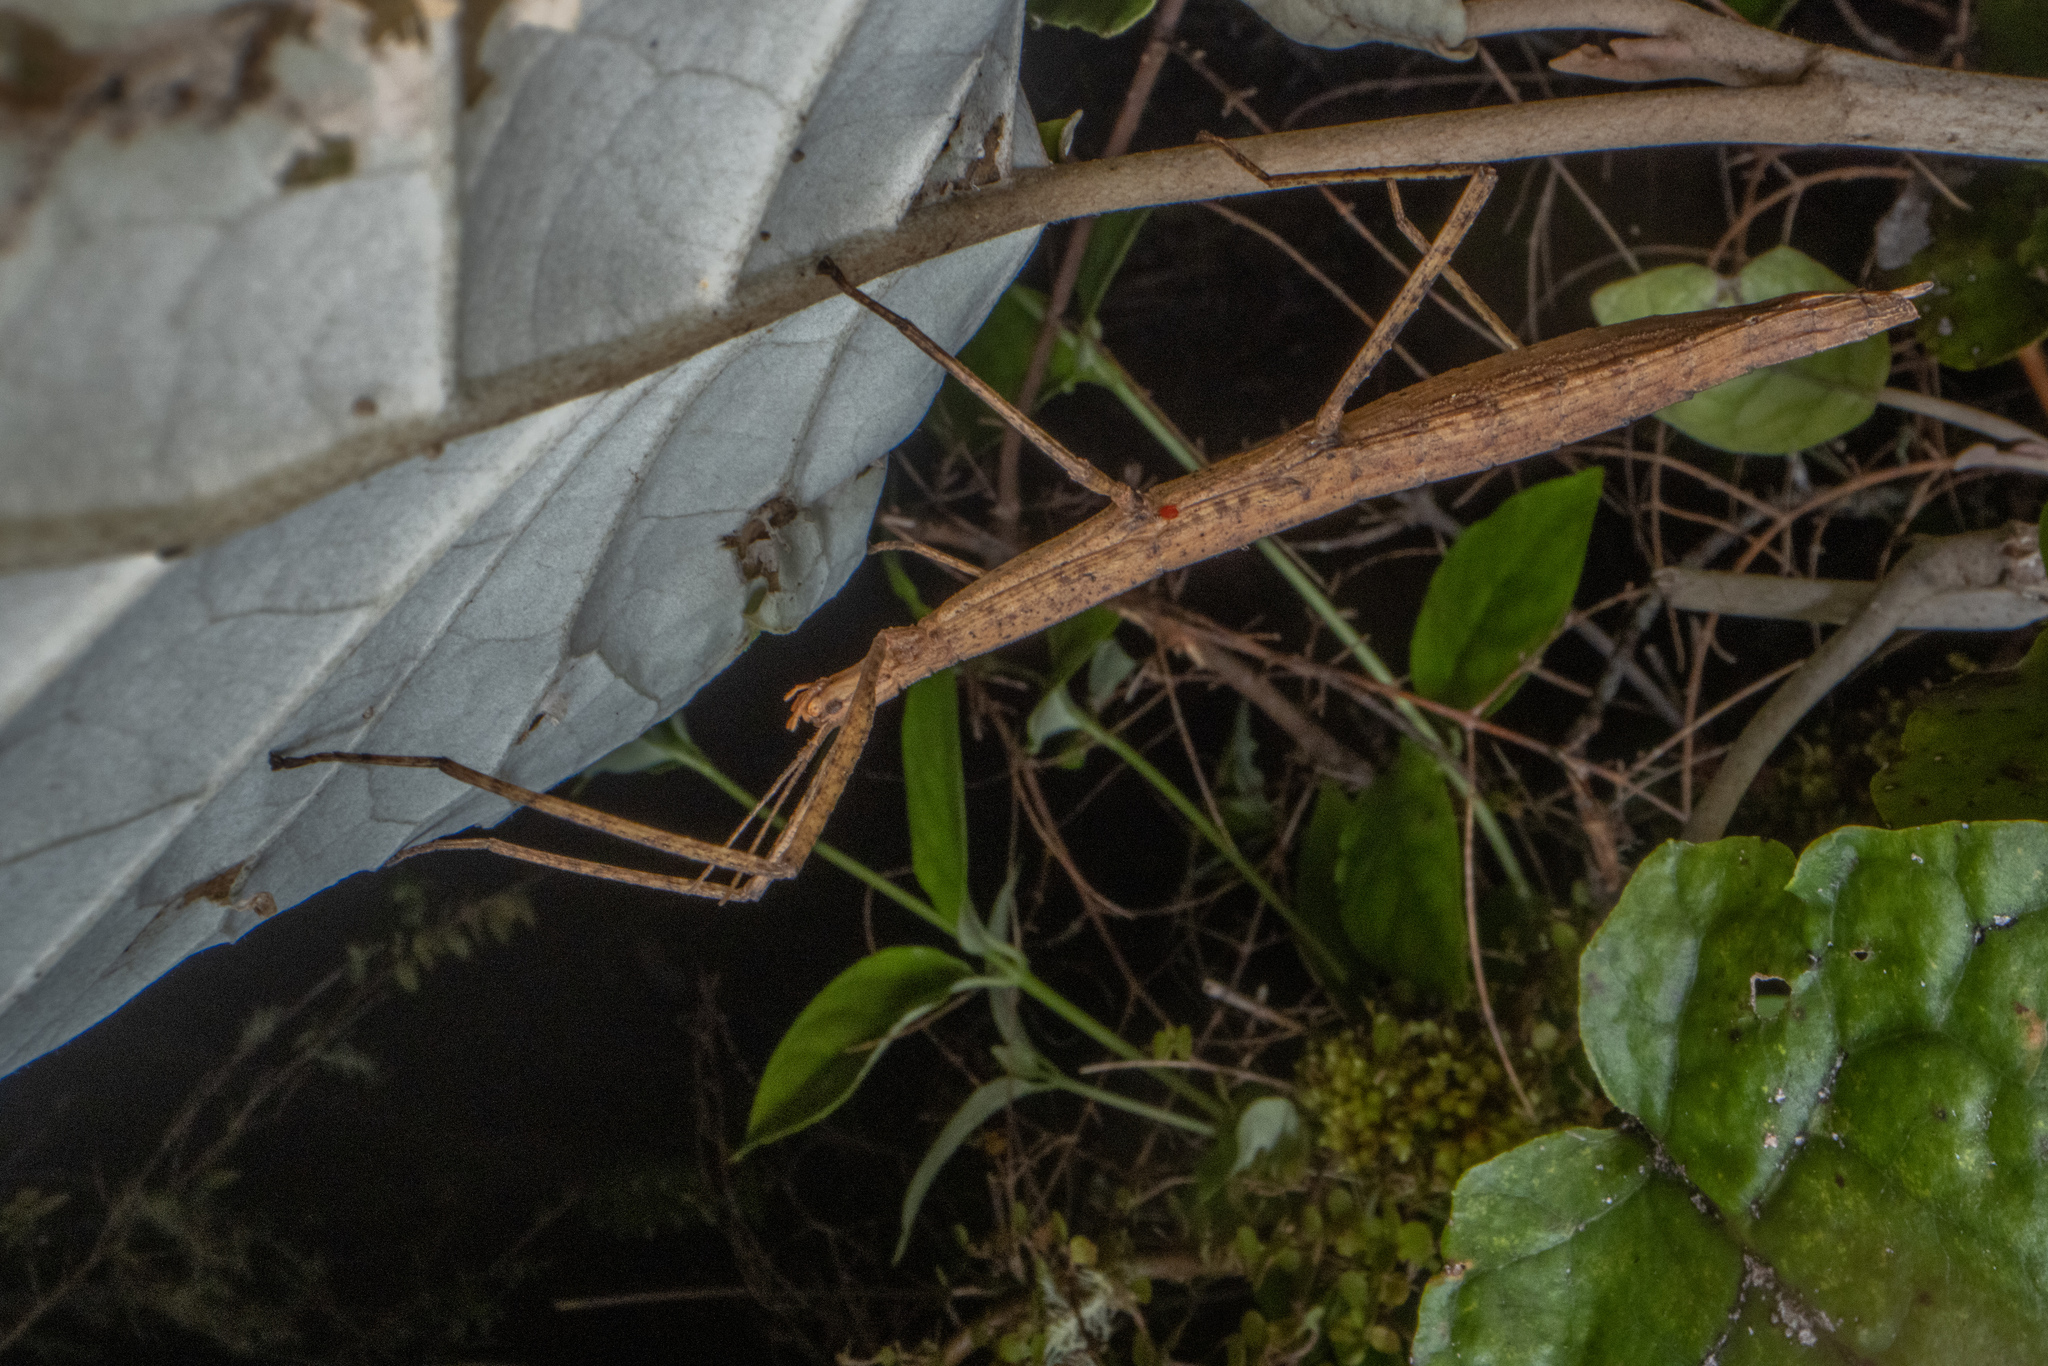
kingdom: Animalia
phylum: Arthropoda
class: Insecta
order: Phasmida
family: Phasmatidae
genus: Tectarchus
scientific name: Tectarchus ovobessus
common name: The rough-skinned ridge-backed stick insect
